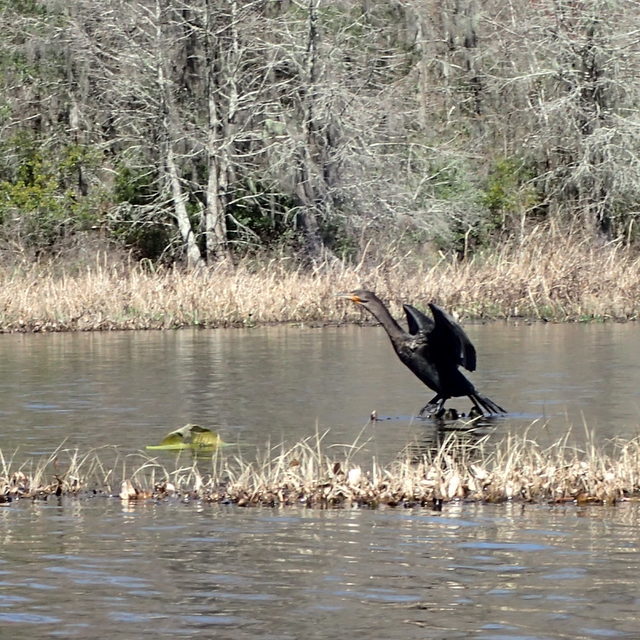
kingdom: Animalia
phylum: Chordata
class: Aves
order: Suliformes
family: Phalacrocoracidae
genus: Phalacrocorax
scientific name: Phalacrocorax auritus
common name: Double-crested cormorant
